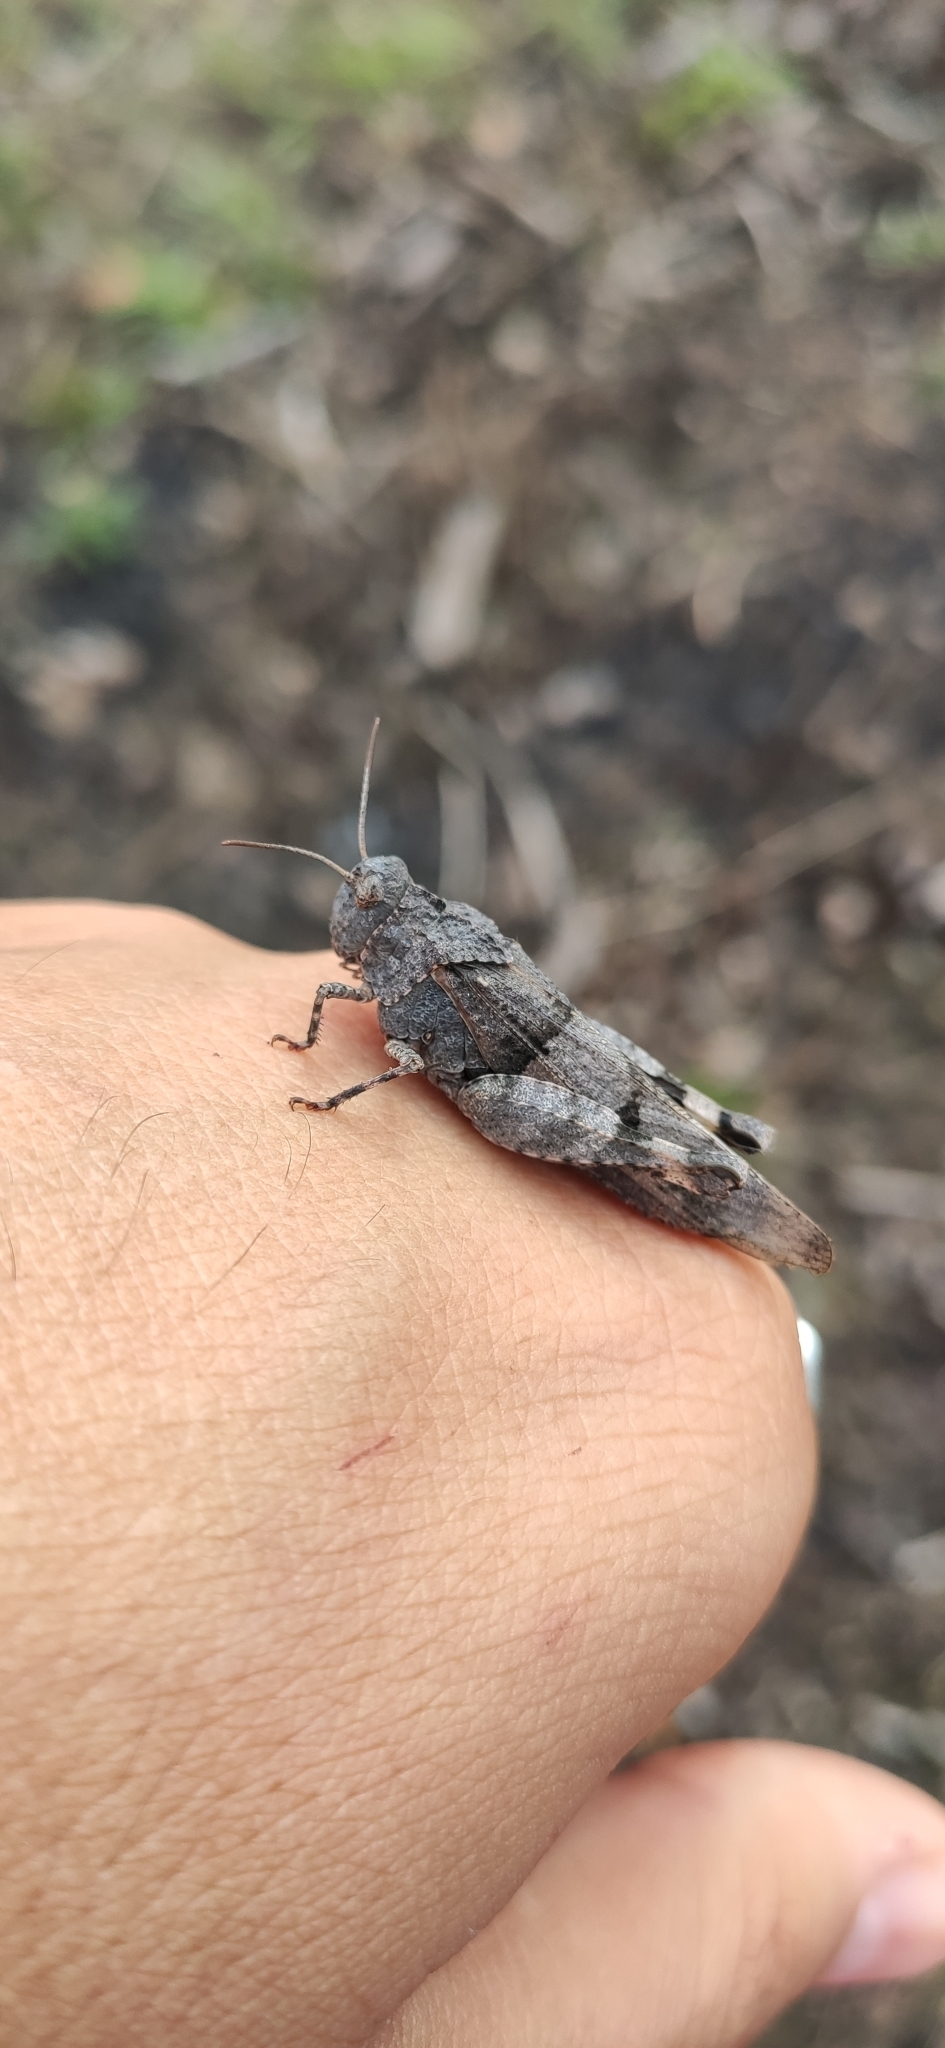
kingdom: Animalia
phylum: Arthropoda
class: Insecta
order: Orthoptera
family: Acrididae
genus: Oedipoda
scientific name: Oedipoda caerulescens
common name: Blue-winged grasshopper
